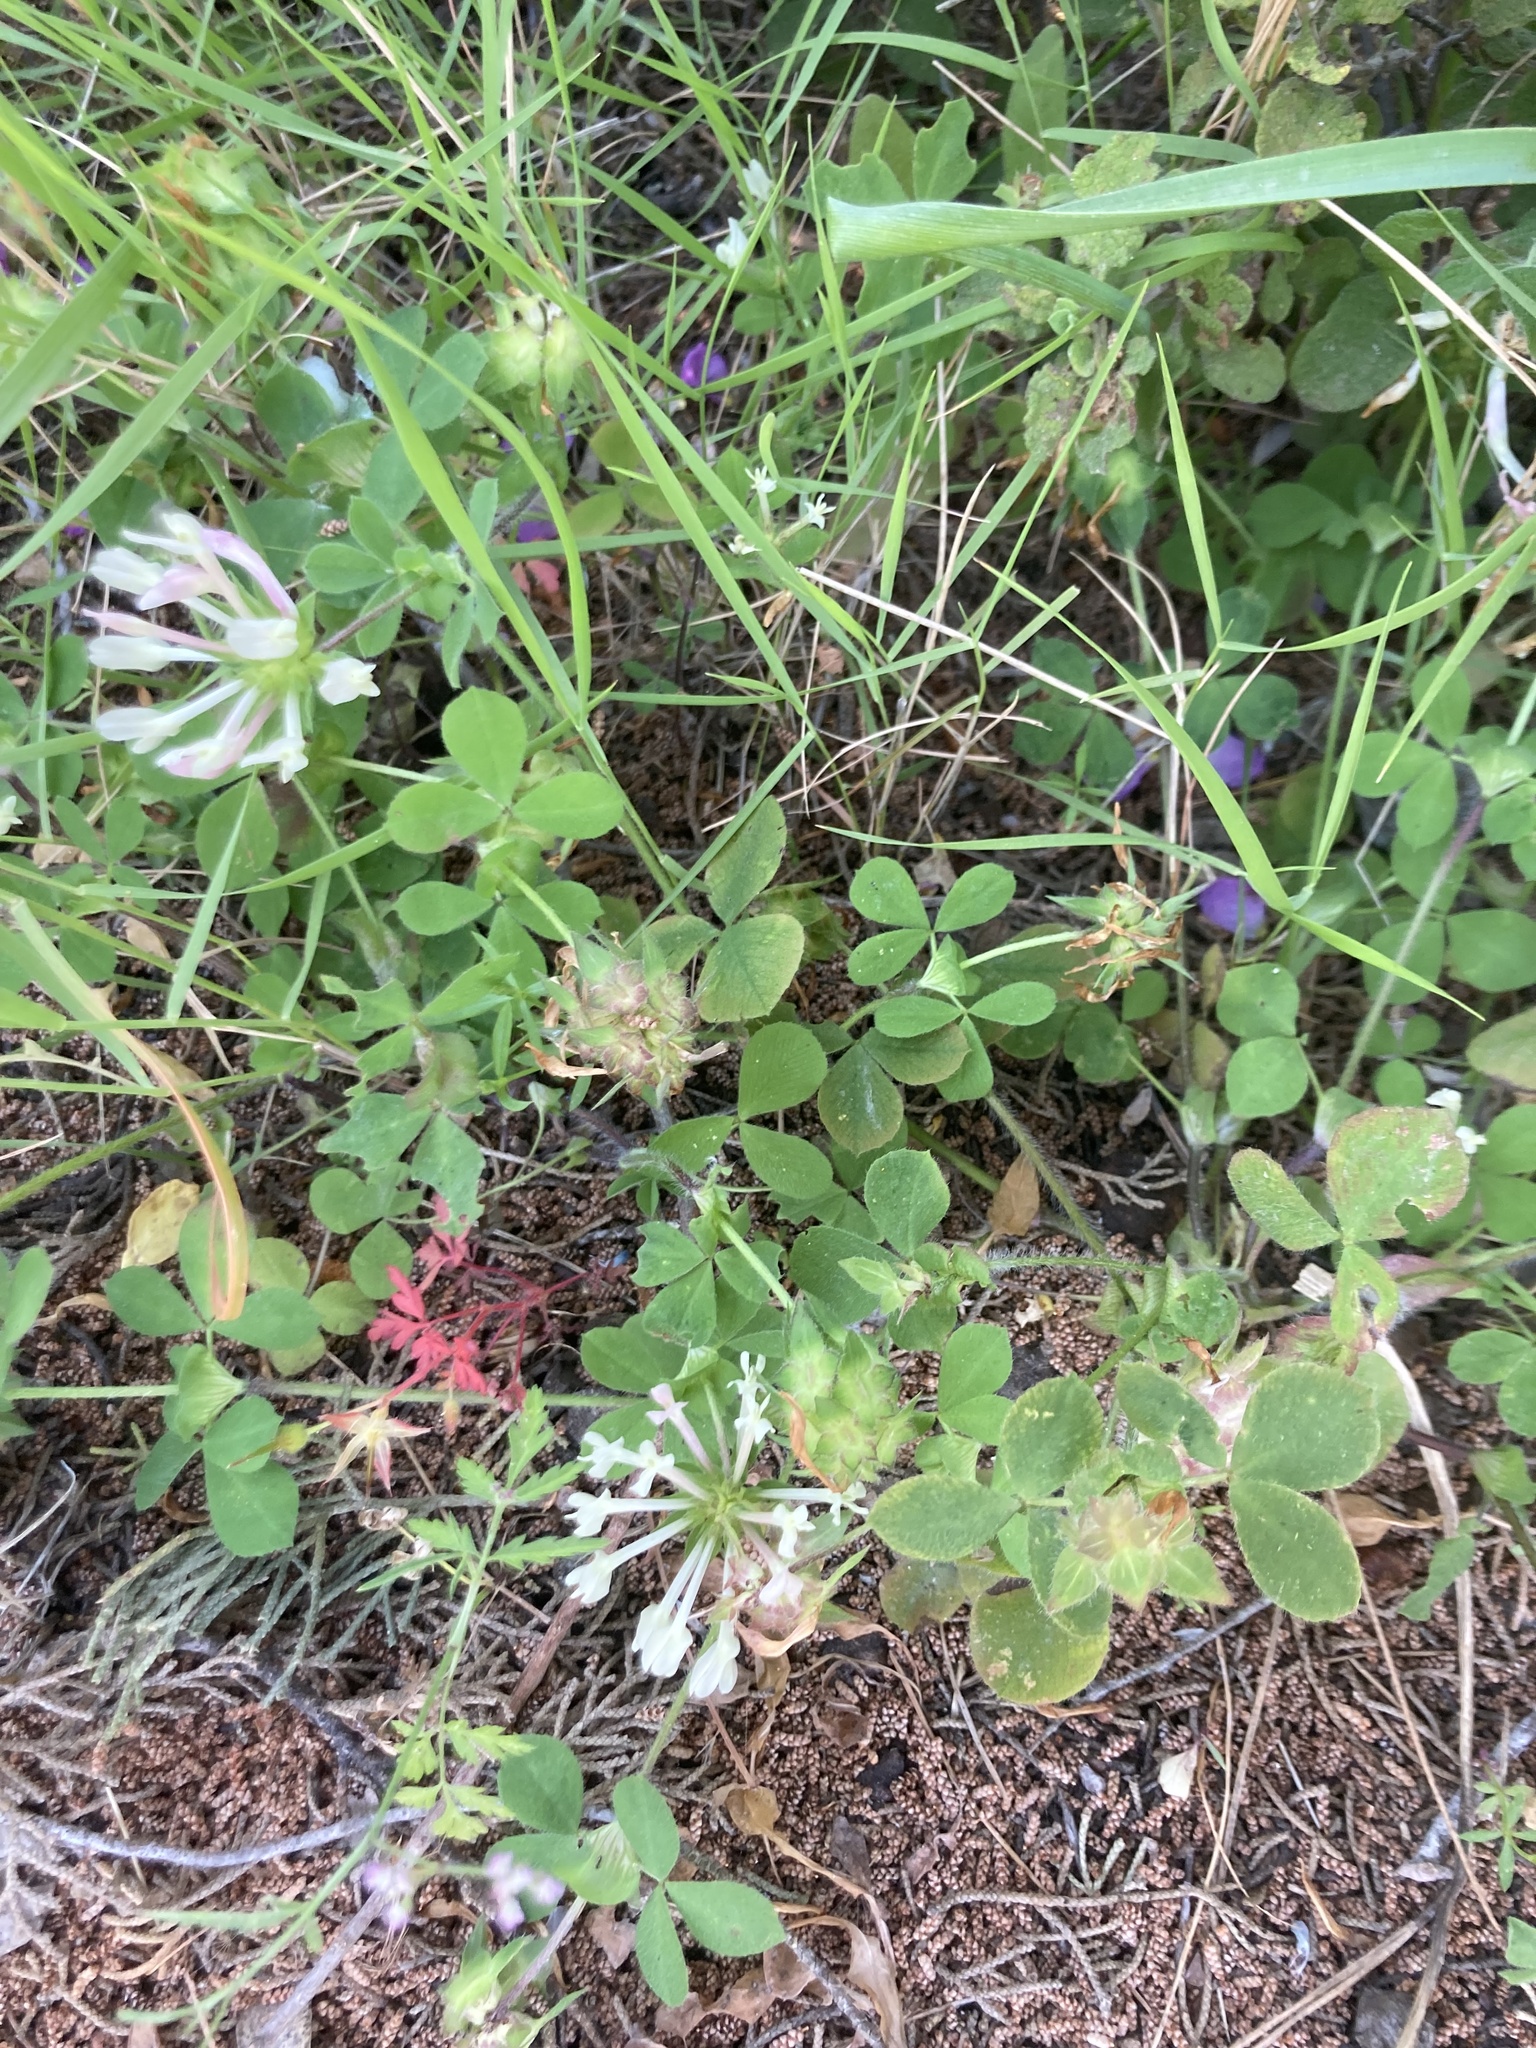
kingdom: Plantae
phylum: Tracheophyta
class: Magnoliopsida
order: Fabales
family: Fabaceae
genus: Trifolium
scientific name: Trifolium clypeatum
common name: Shield clover
